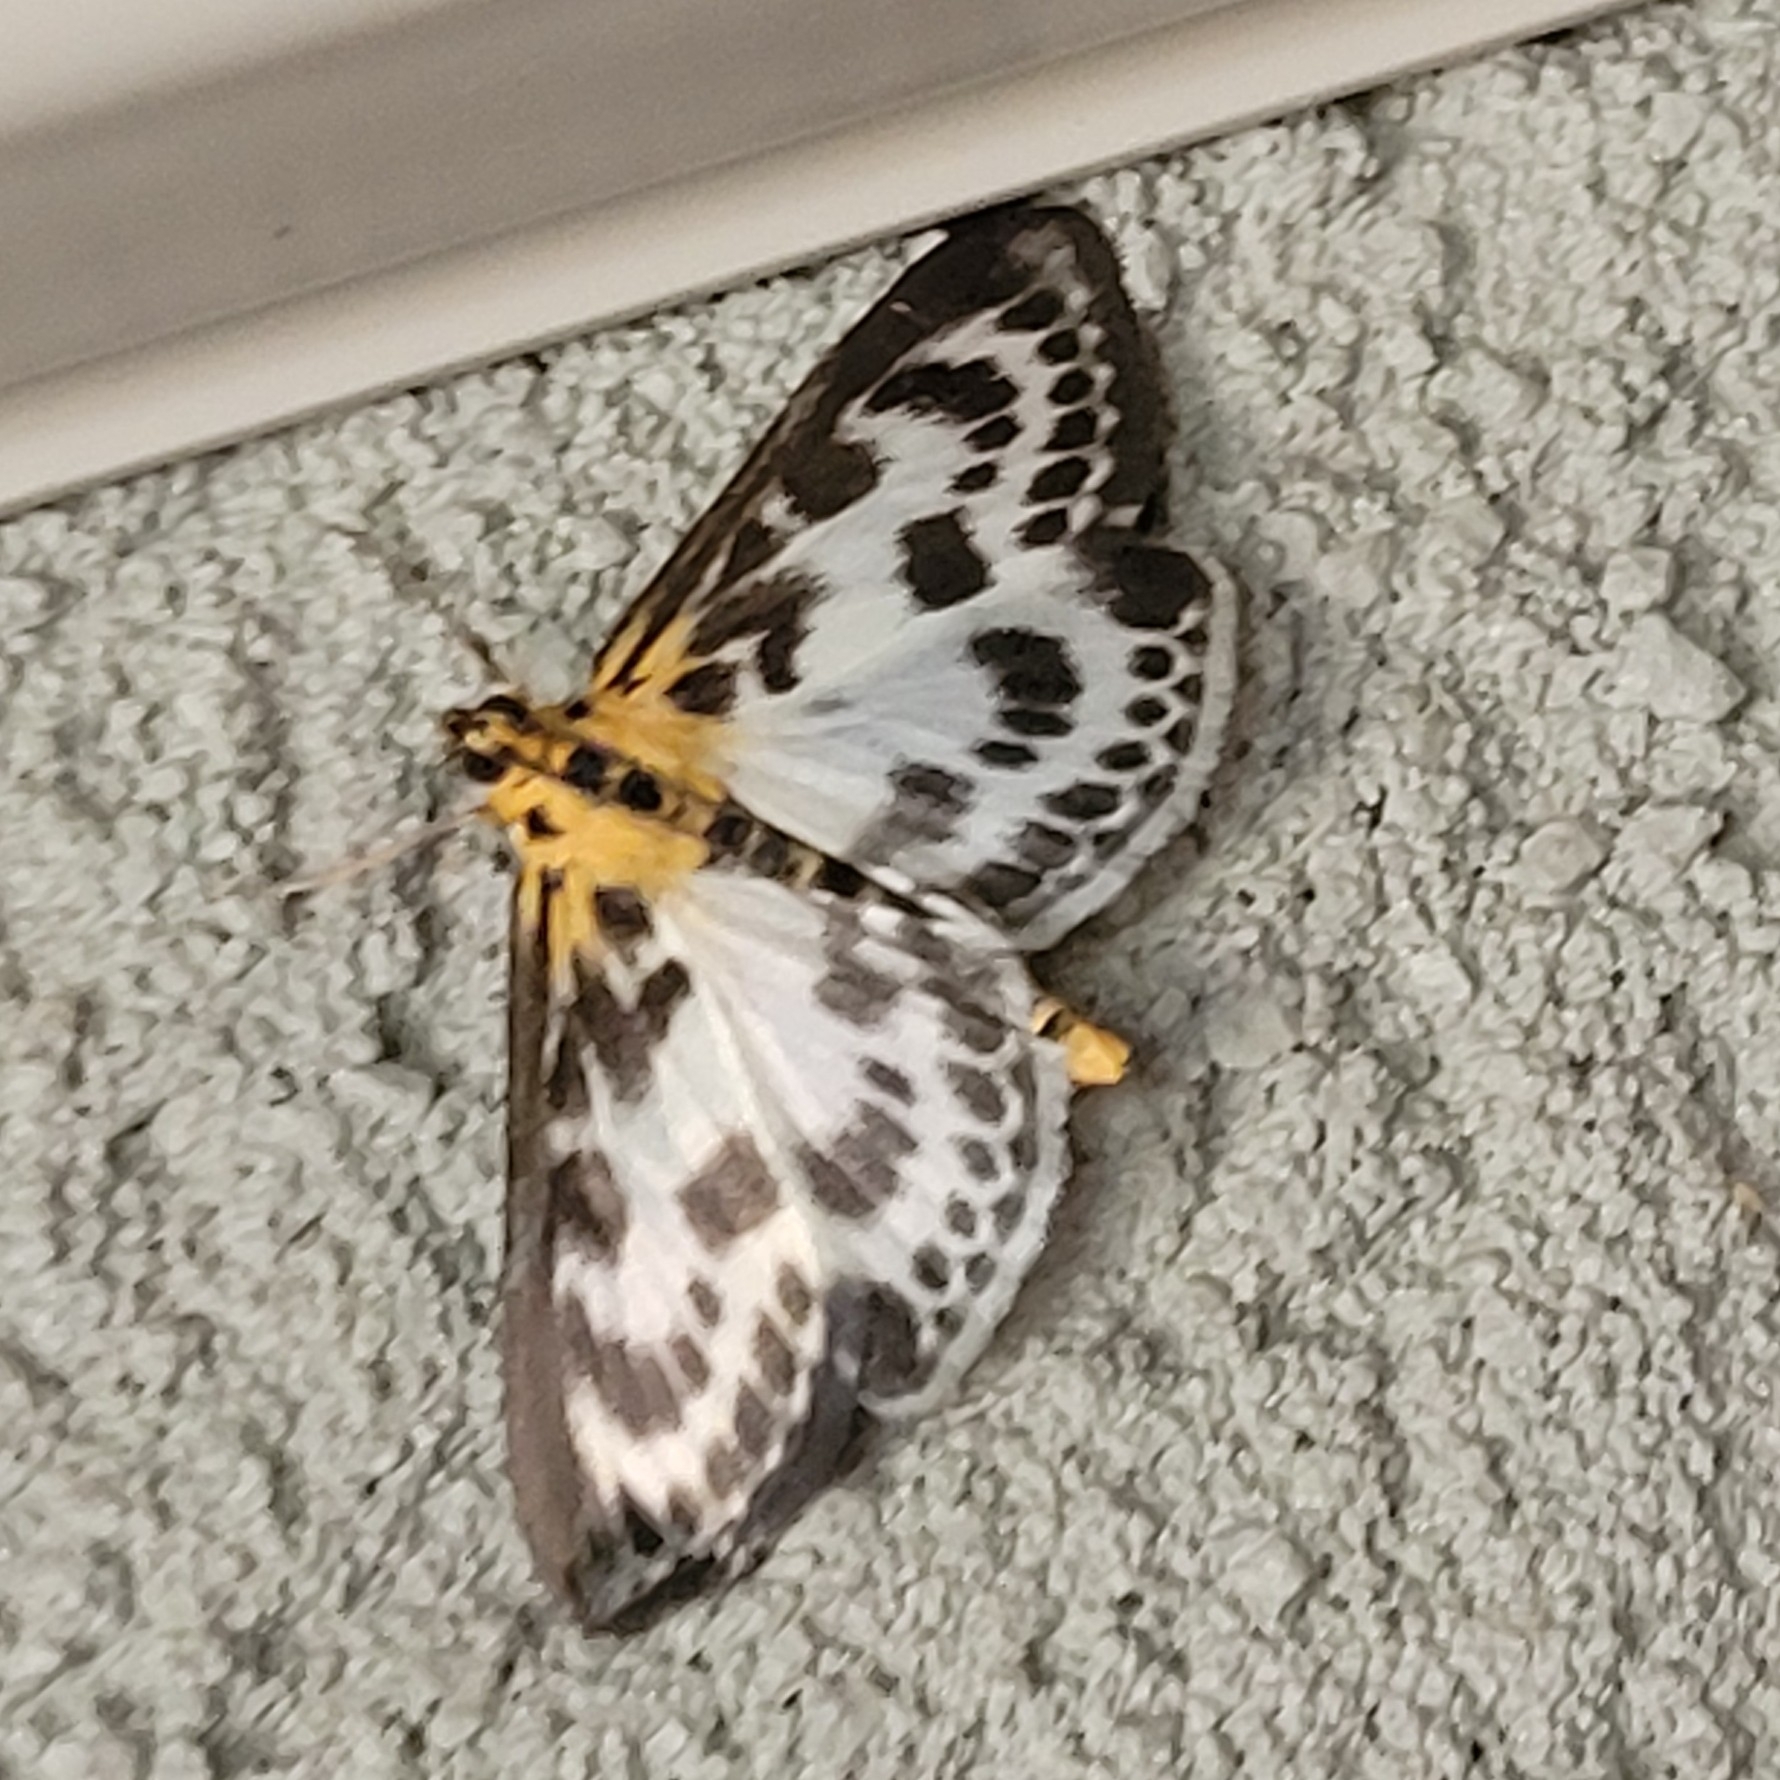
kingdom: Animalia
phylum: Arthropoda
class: Insecta
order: Lepidoptera
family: Crambidae
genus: Anania
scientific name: Anania hortulata
